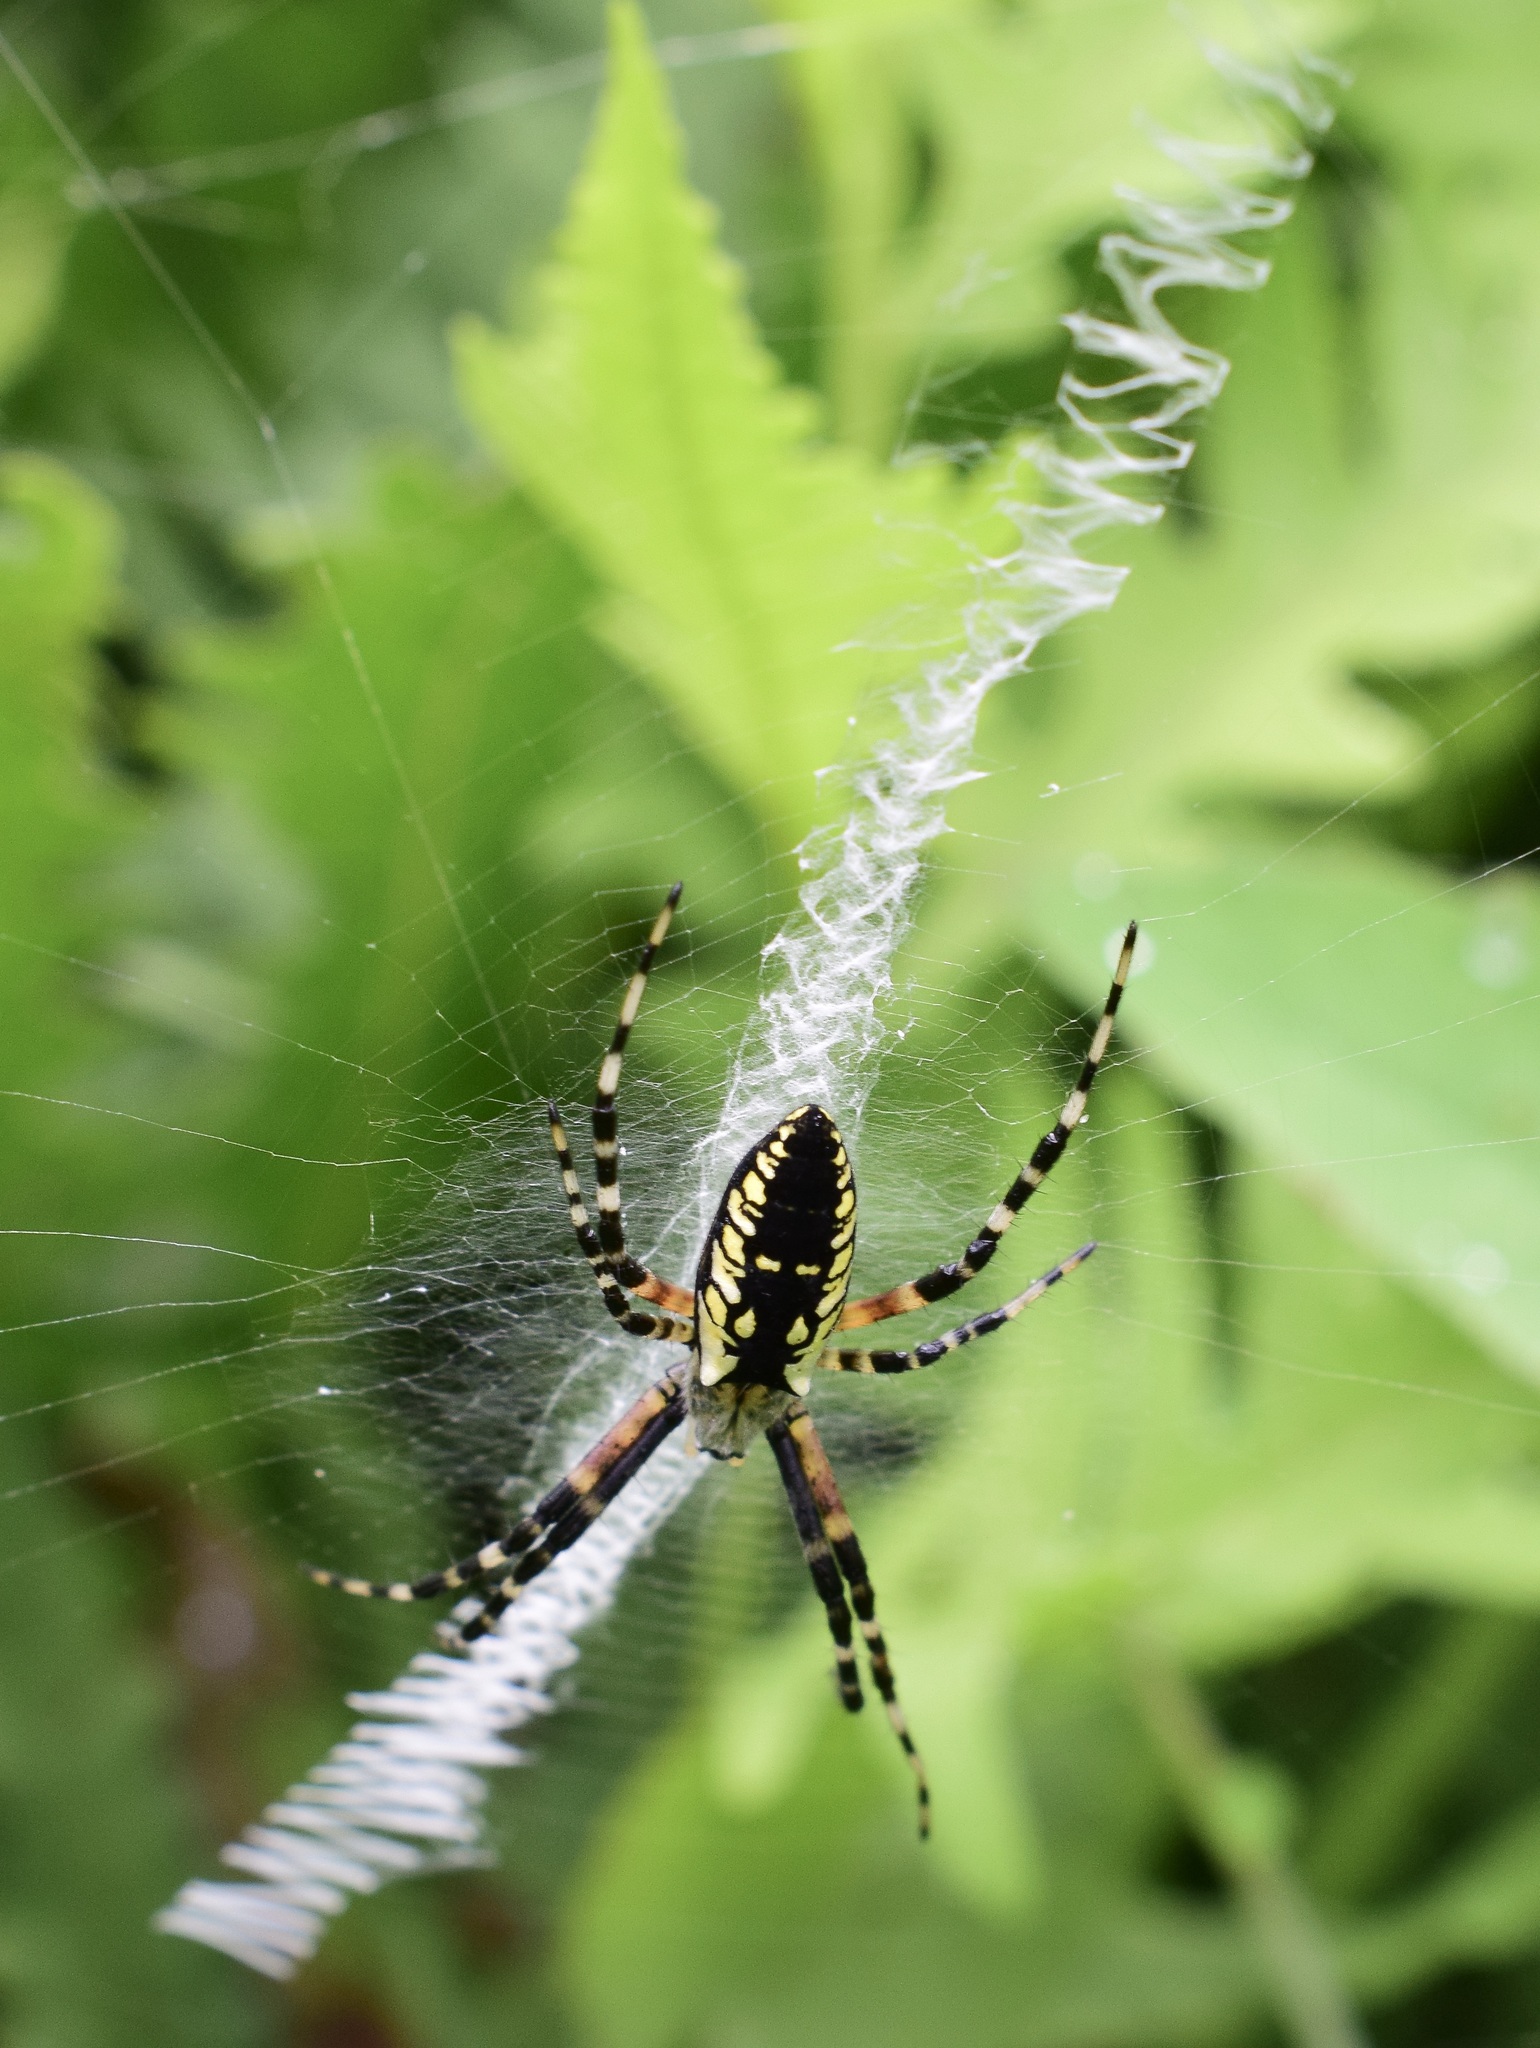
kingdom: Animalia
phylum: Arthropoda
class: Arachnida
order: Araneae
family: Araneidae
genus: Argiope
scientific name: Argiope aurantia
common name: Orb weavers
